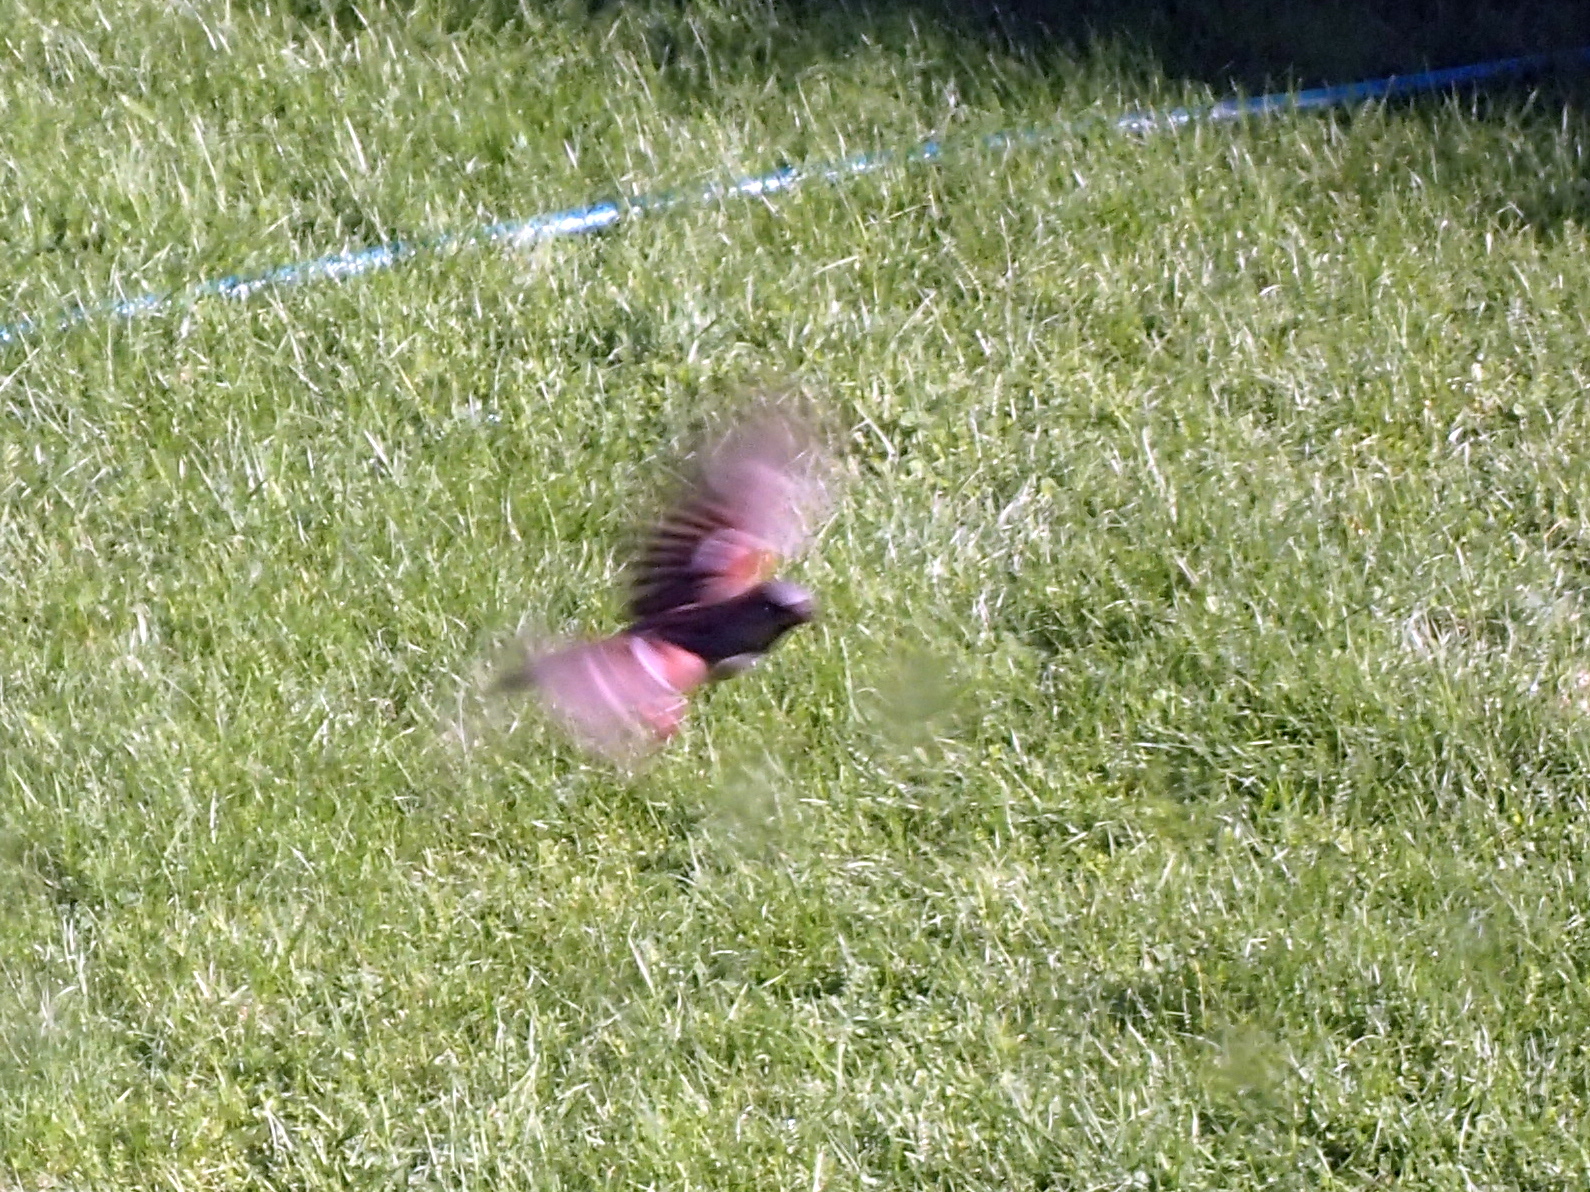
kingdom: Animalia
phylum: Chordata
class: Aves
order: Passeriformes
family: Passeridae
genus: Passer
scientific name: Passer domesticus
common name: House sparrow
